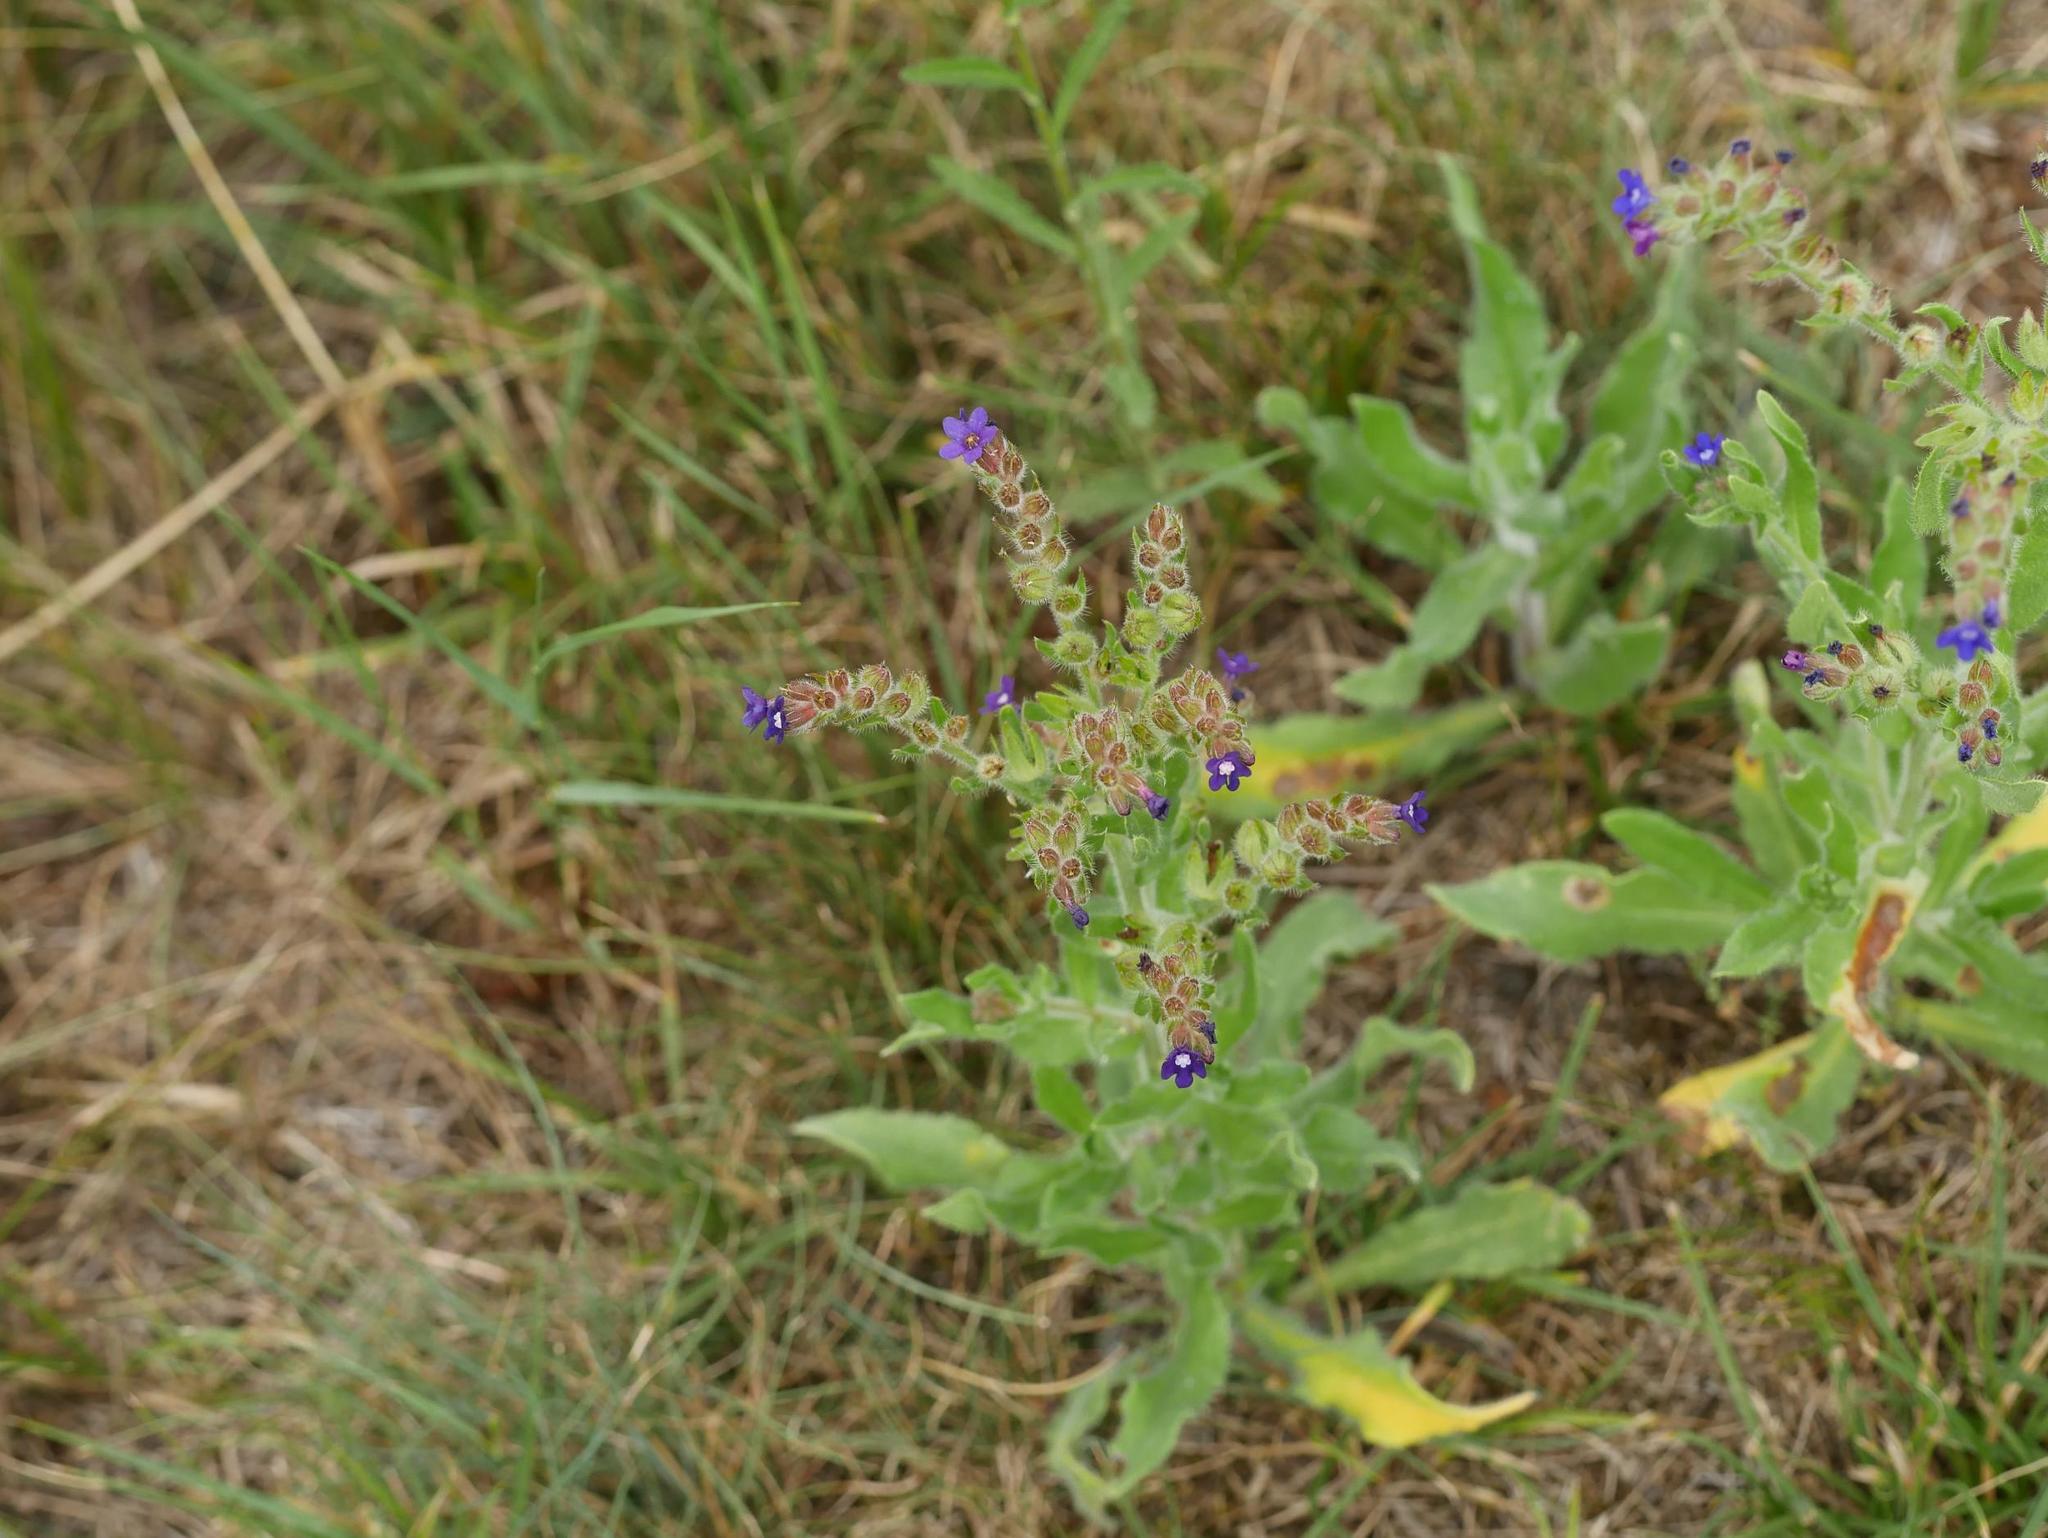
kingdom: Plantae
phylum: Tracheophyta
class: Magnoliopsida
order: Boraginales
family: Boraginaceae
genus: Anchusa
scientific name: Anchusa officinalis
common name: Alkanet
